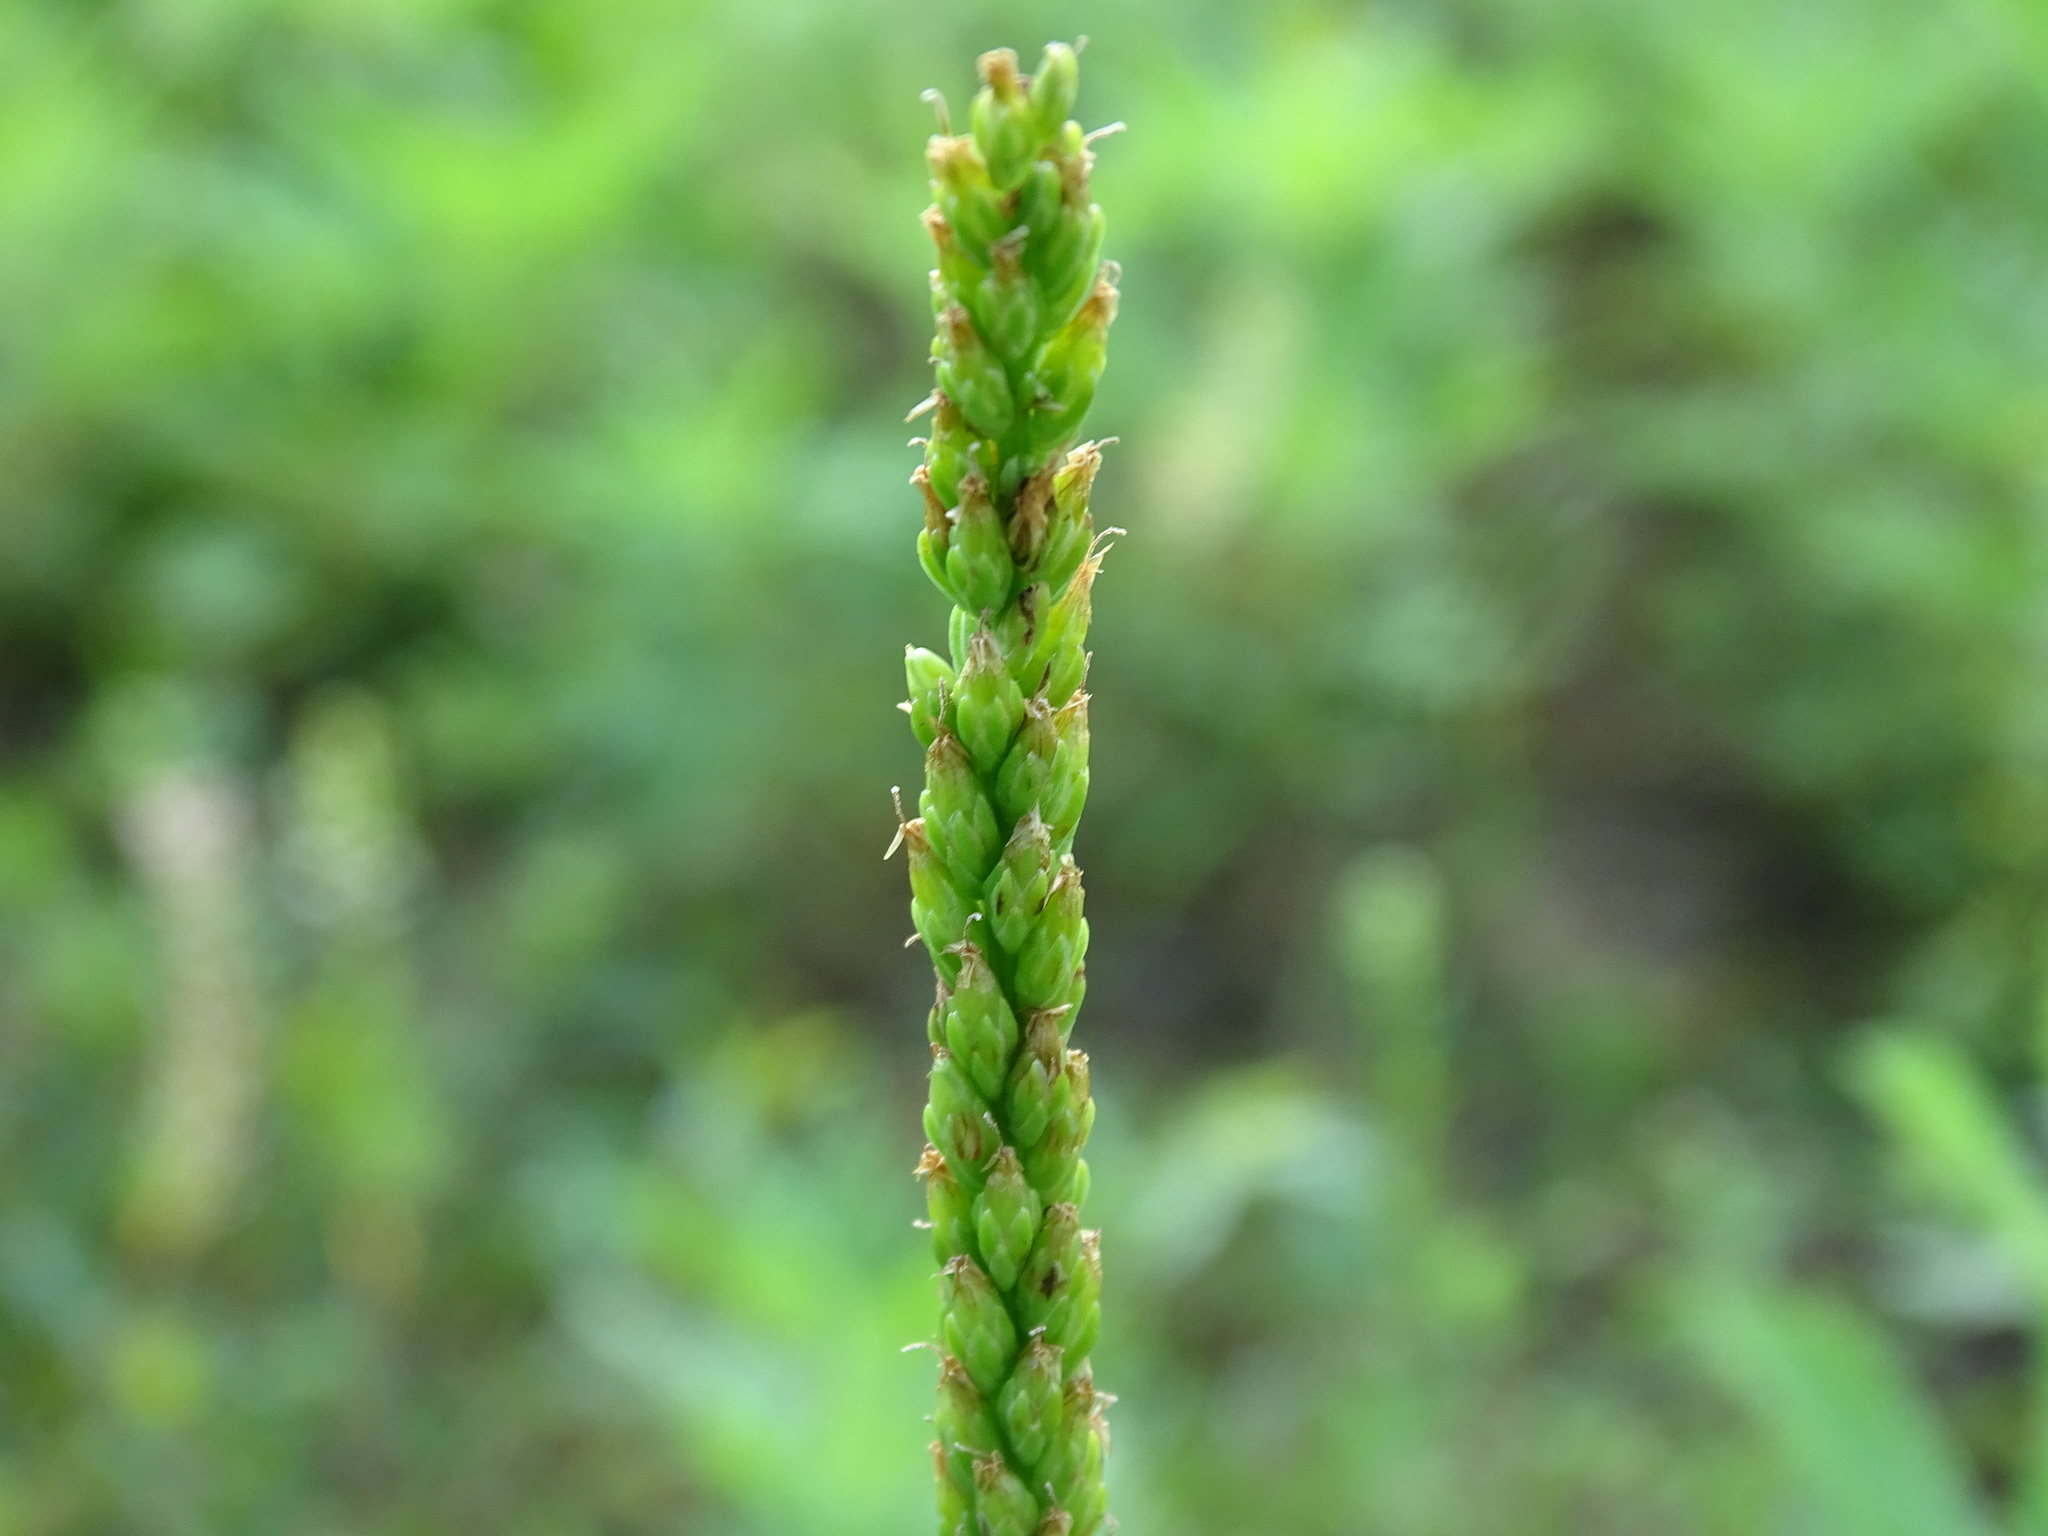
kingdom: Plantae
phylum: Tracheophyta
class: Magnoliopsida
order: Lamiales
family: Plantaginaceae
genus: Plantago
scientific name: Plantago rugelii
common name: American plantain
